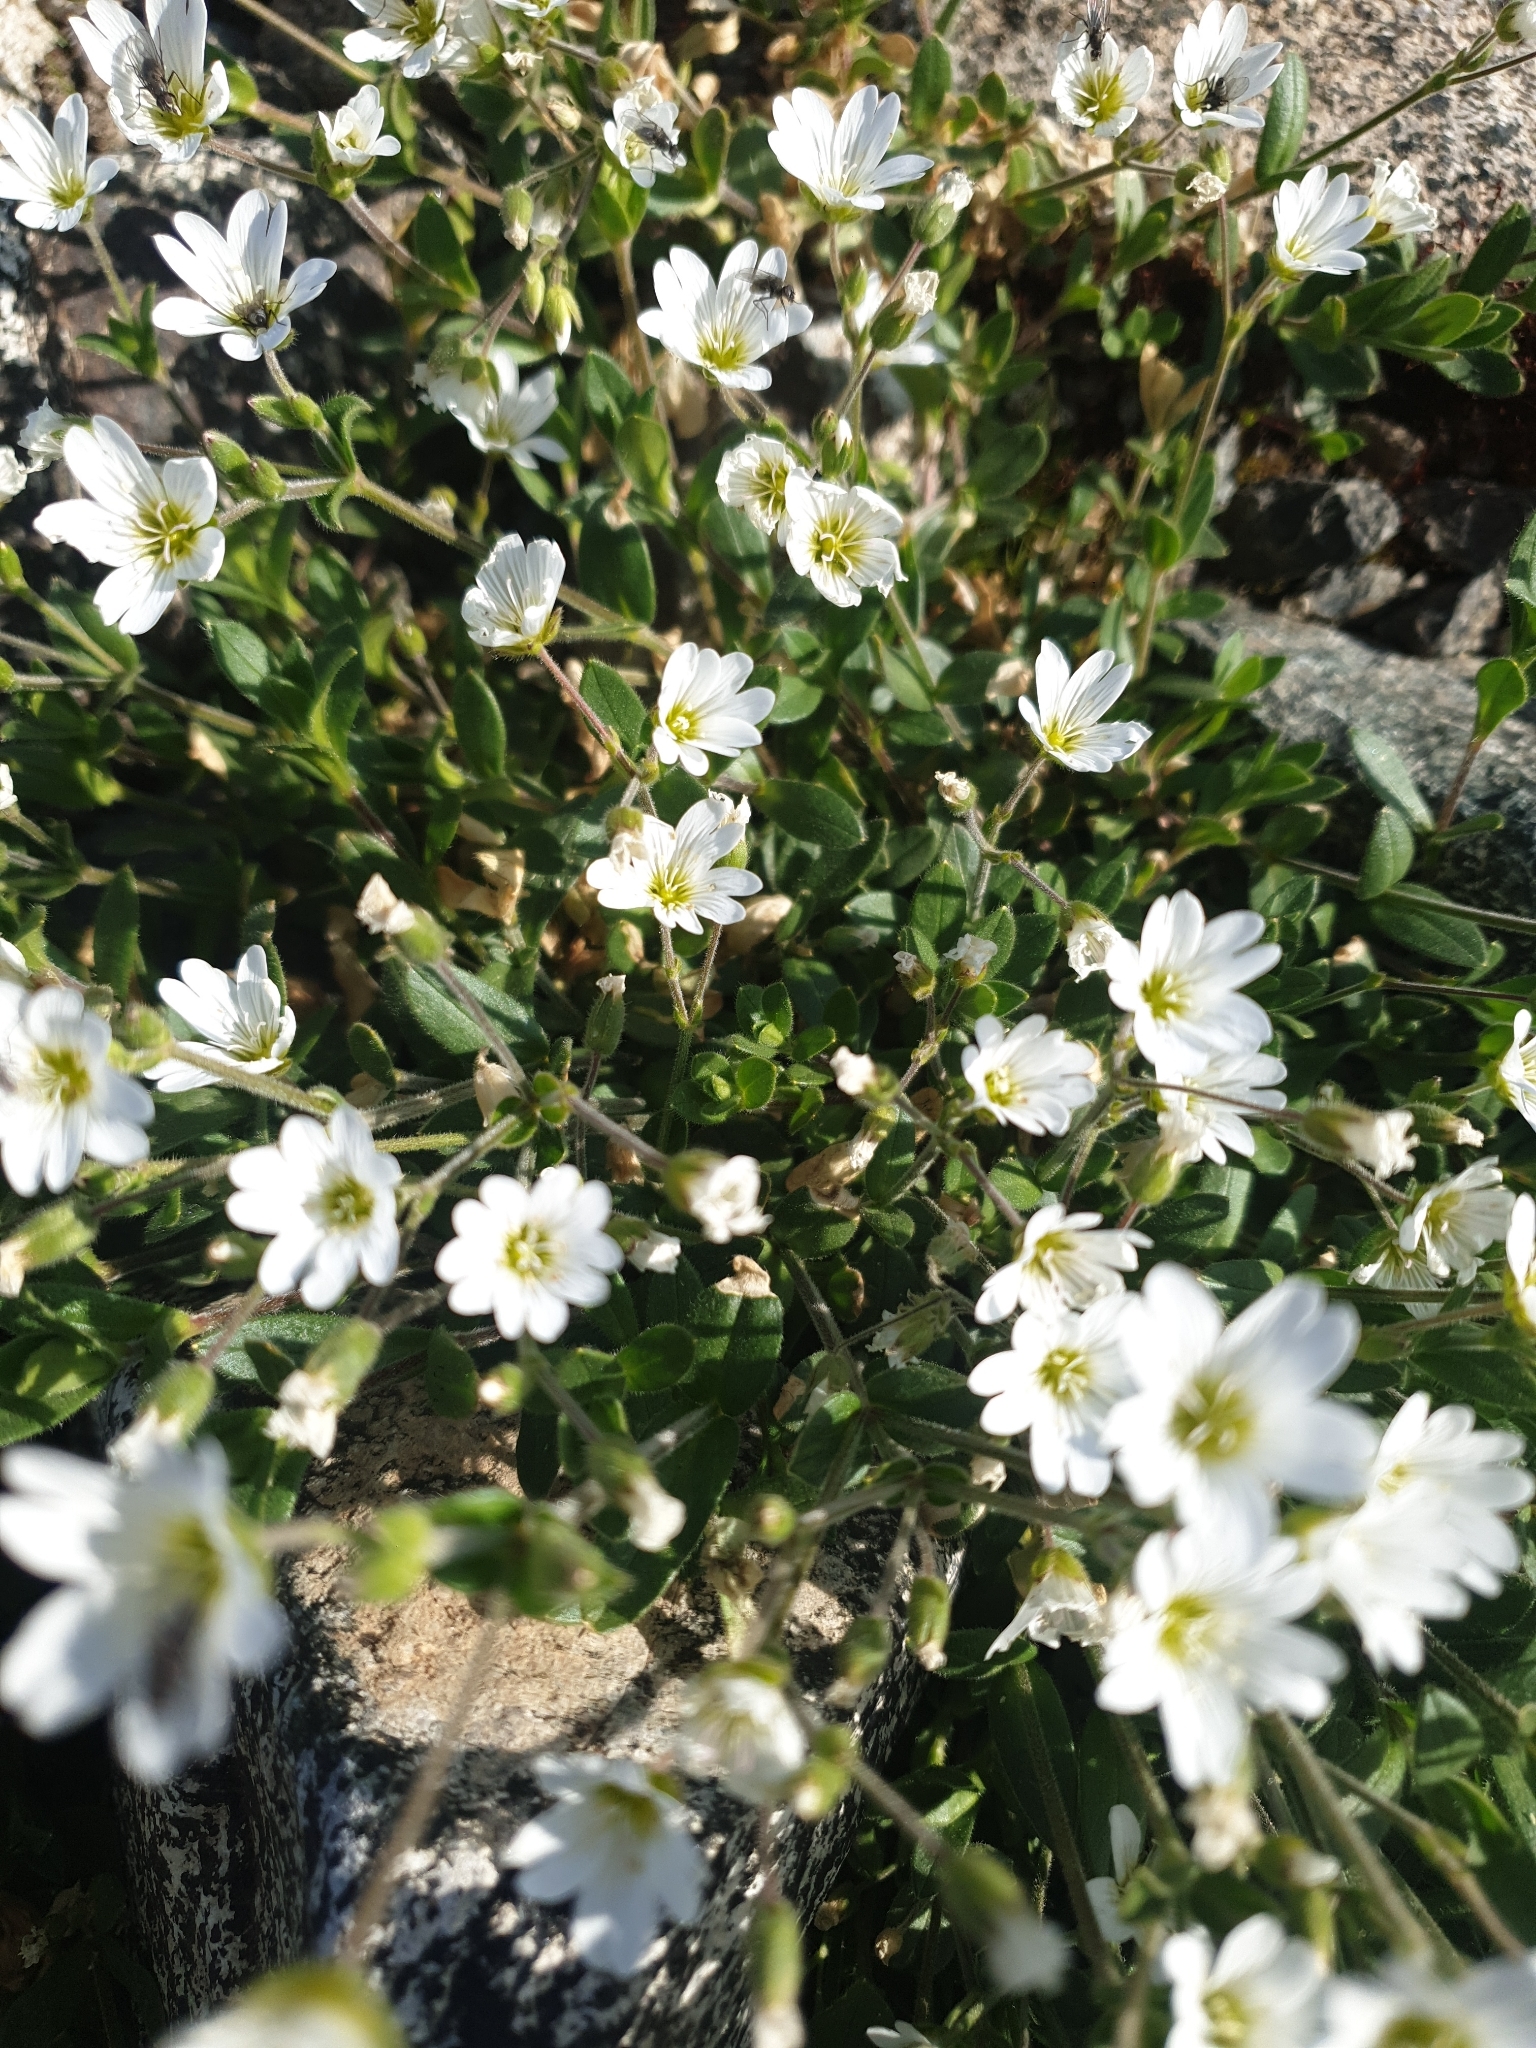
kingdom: Plantae
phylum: Tracheophyta
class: Magnoliopsida
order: Caryophyllales
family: Caryophyllaceae
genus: Cerastium
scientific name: Cerastium krylovii
